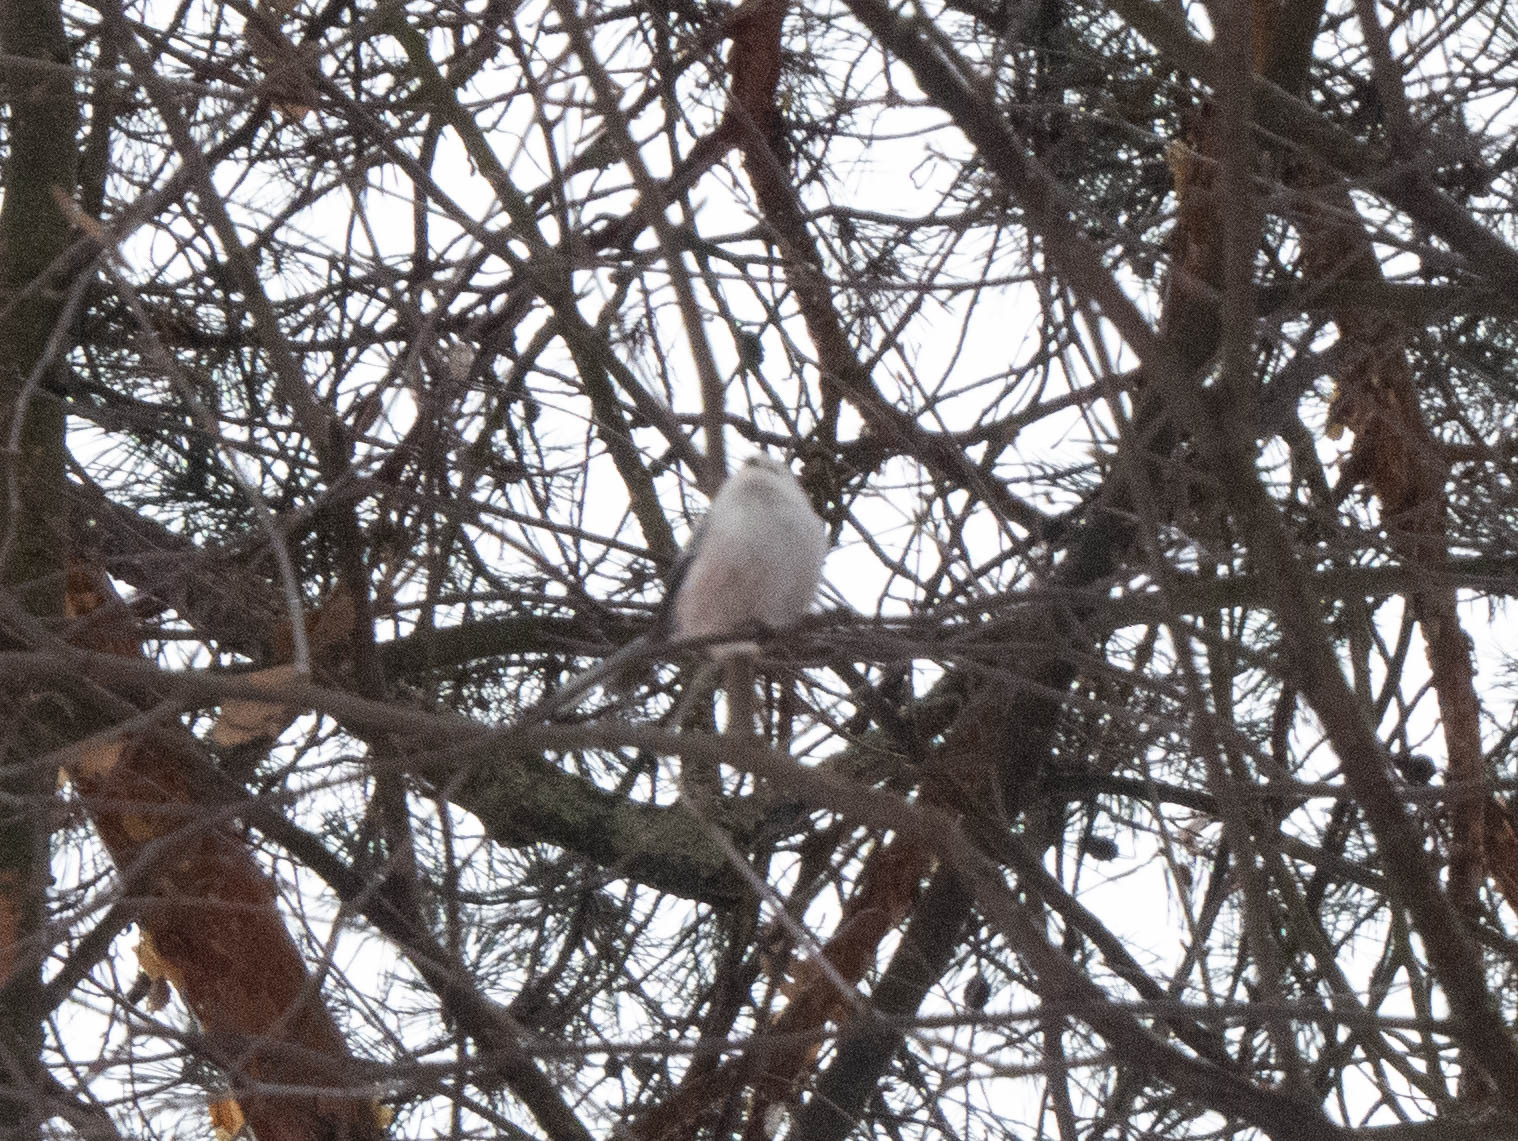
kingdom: Animalia
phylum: Chordata
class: Aves
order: Passeriformes
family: Aegithalidae
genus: Aegithalos
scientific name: Aegithalos caudatus
